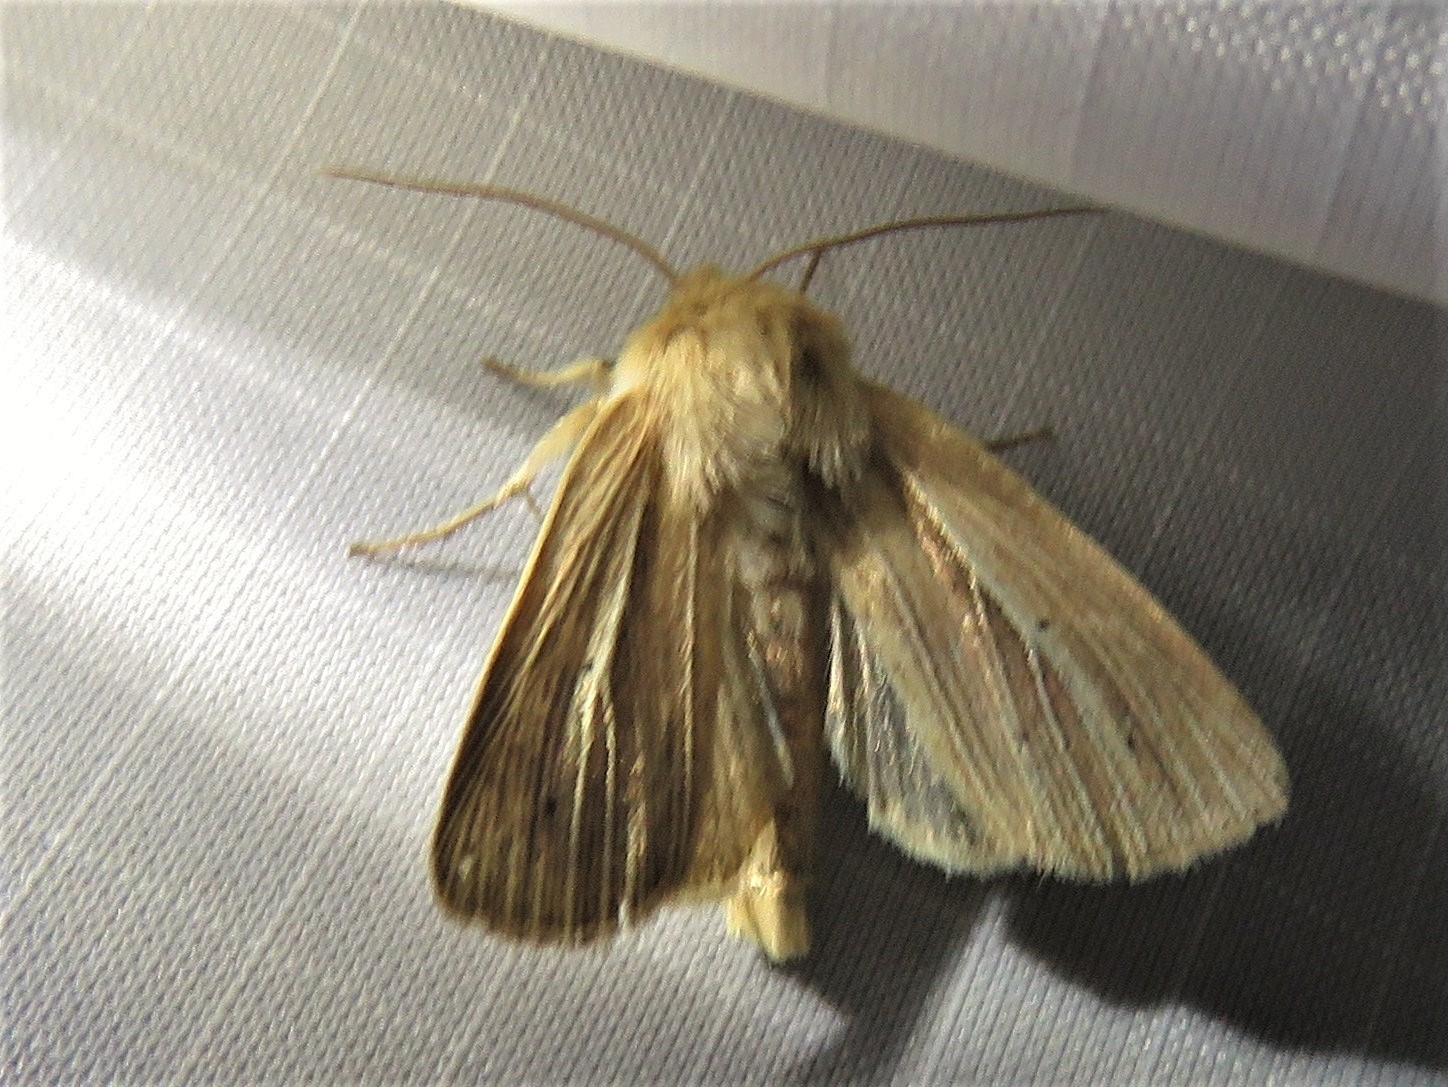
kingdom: Animalia
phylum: Arthropoda
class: Insecta
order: Lepidoptera
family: Noctuidae
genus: Mythimna
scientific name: Mythimna impura
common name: Smoky wainscot
